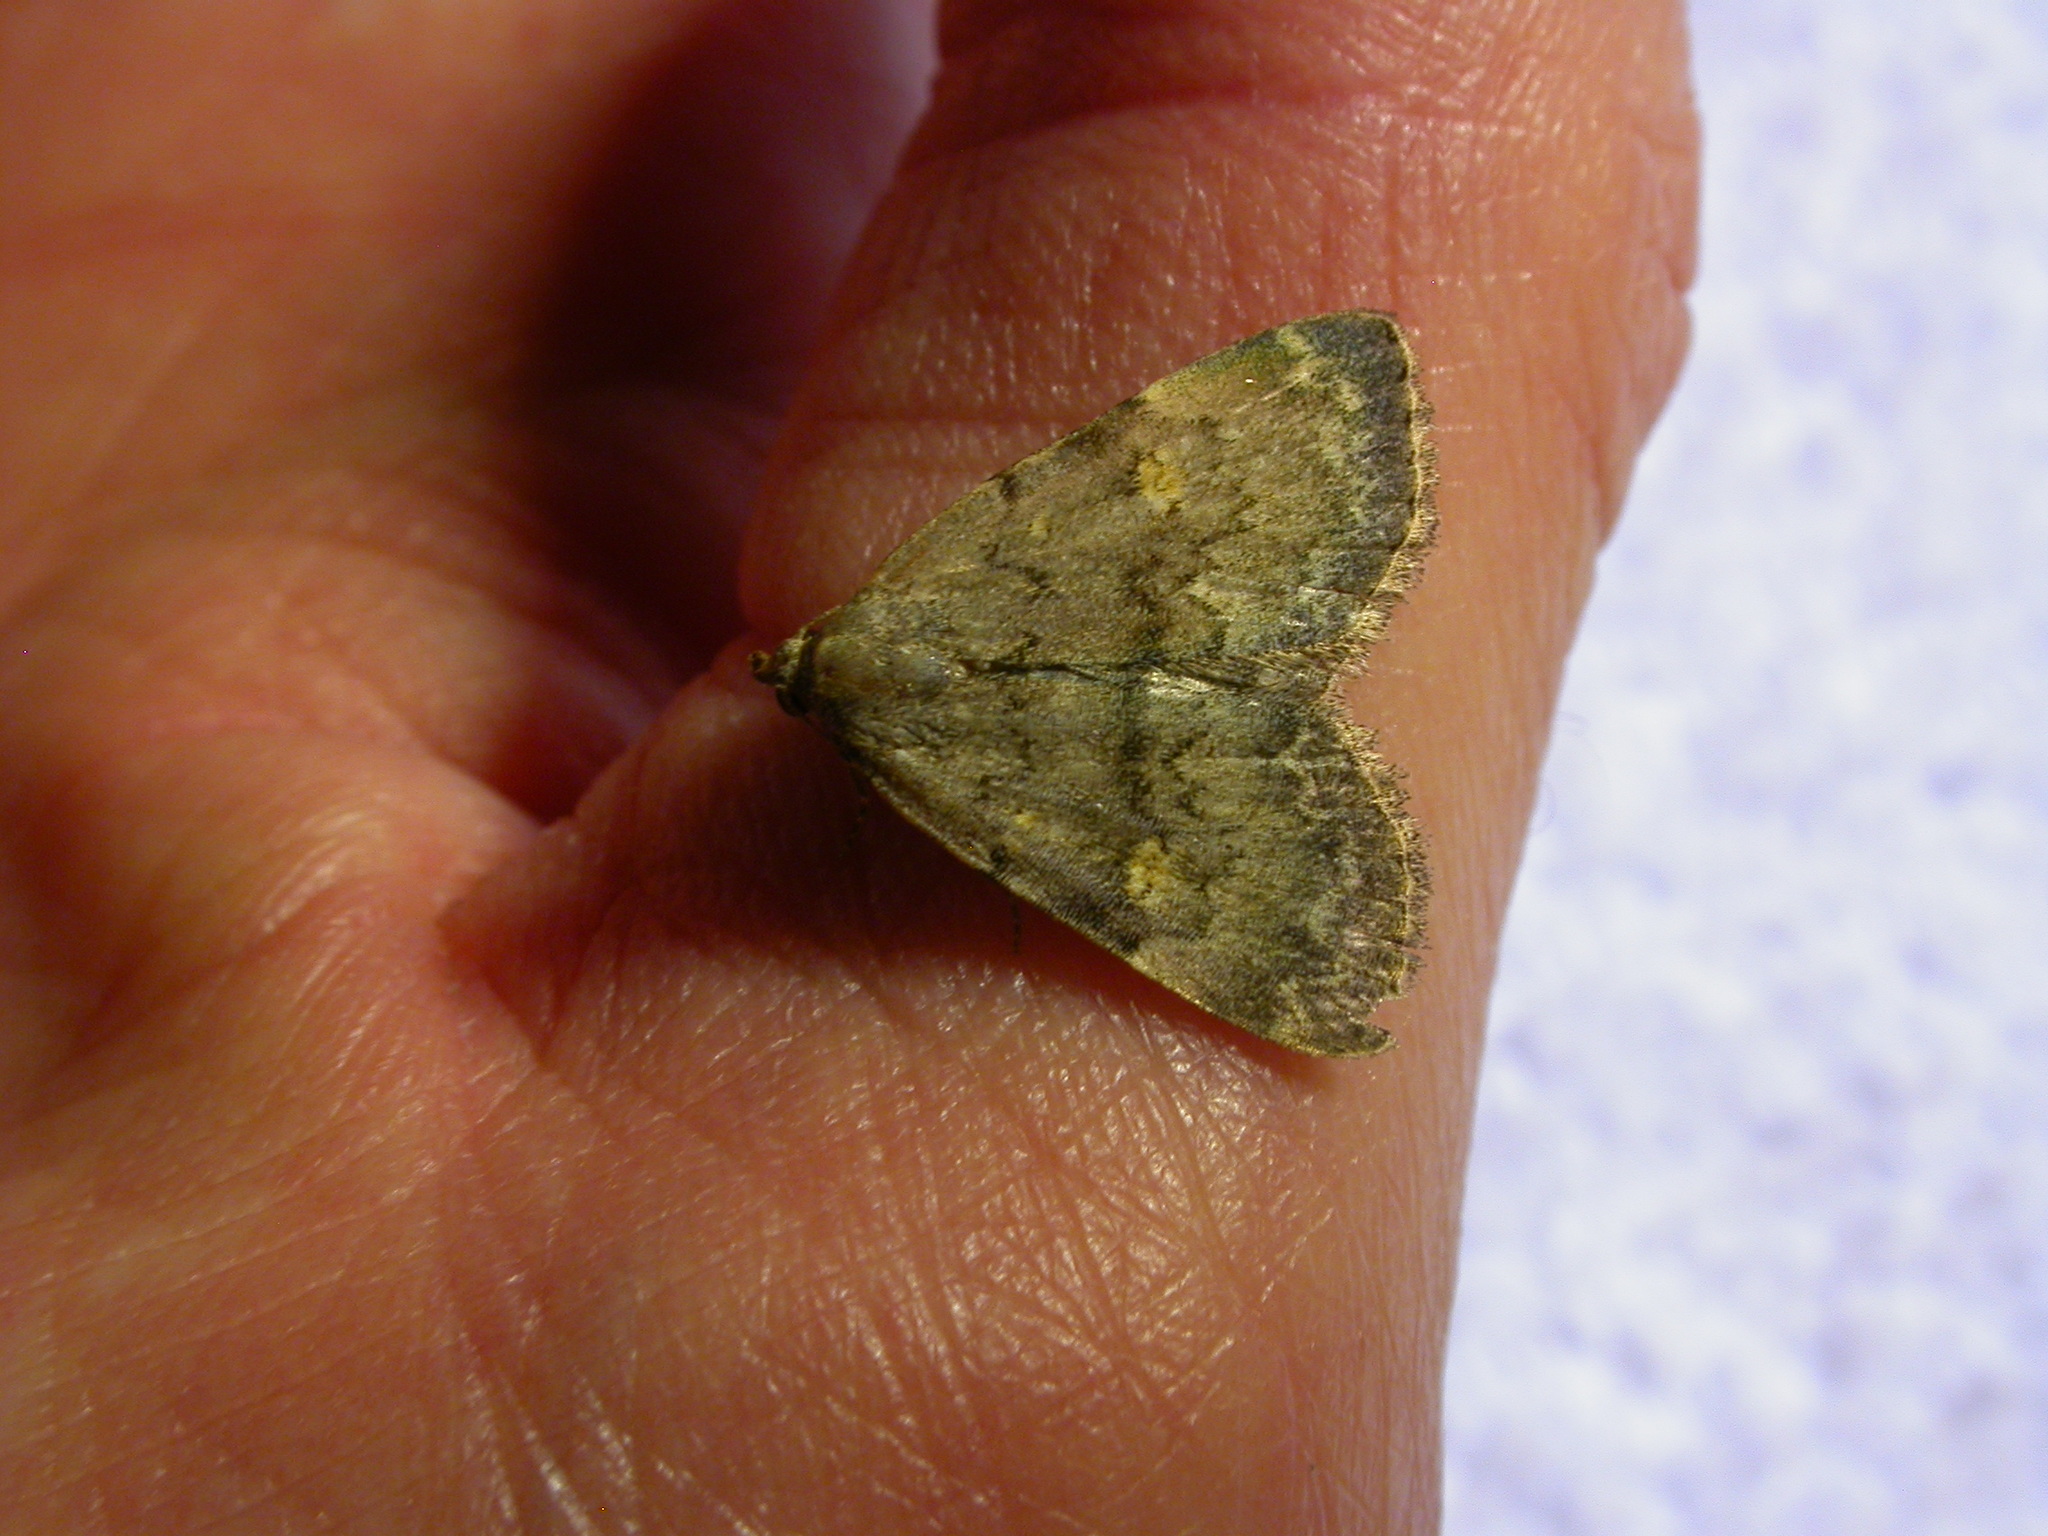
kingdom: Animalia
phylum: Arthropoda
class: Insecta
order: Lepidoptera
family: Erebidae
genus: Idia
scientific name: Idia aemula
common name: Common idia moth
